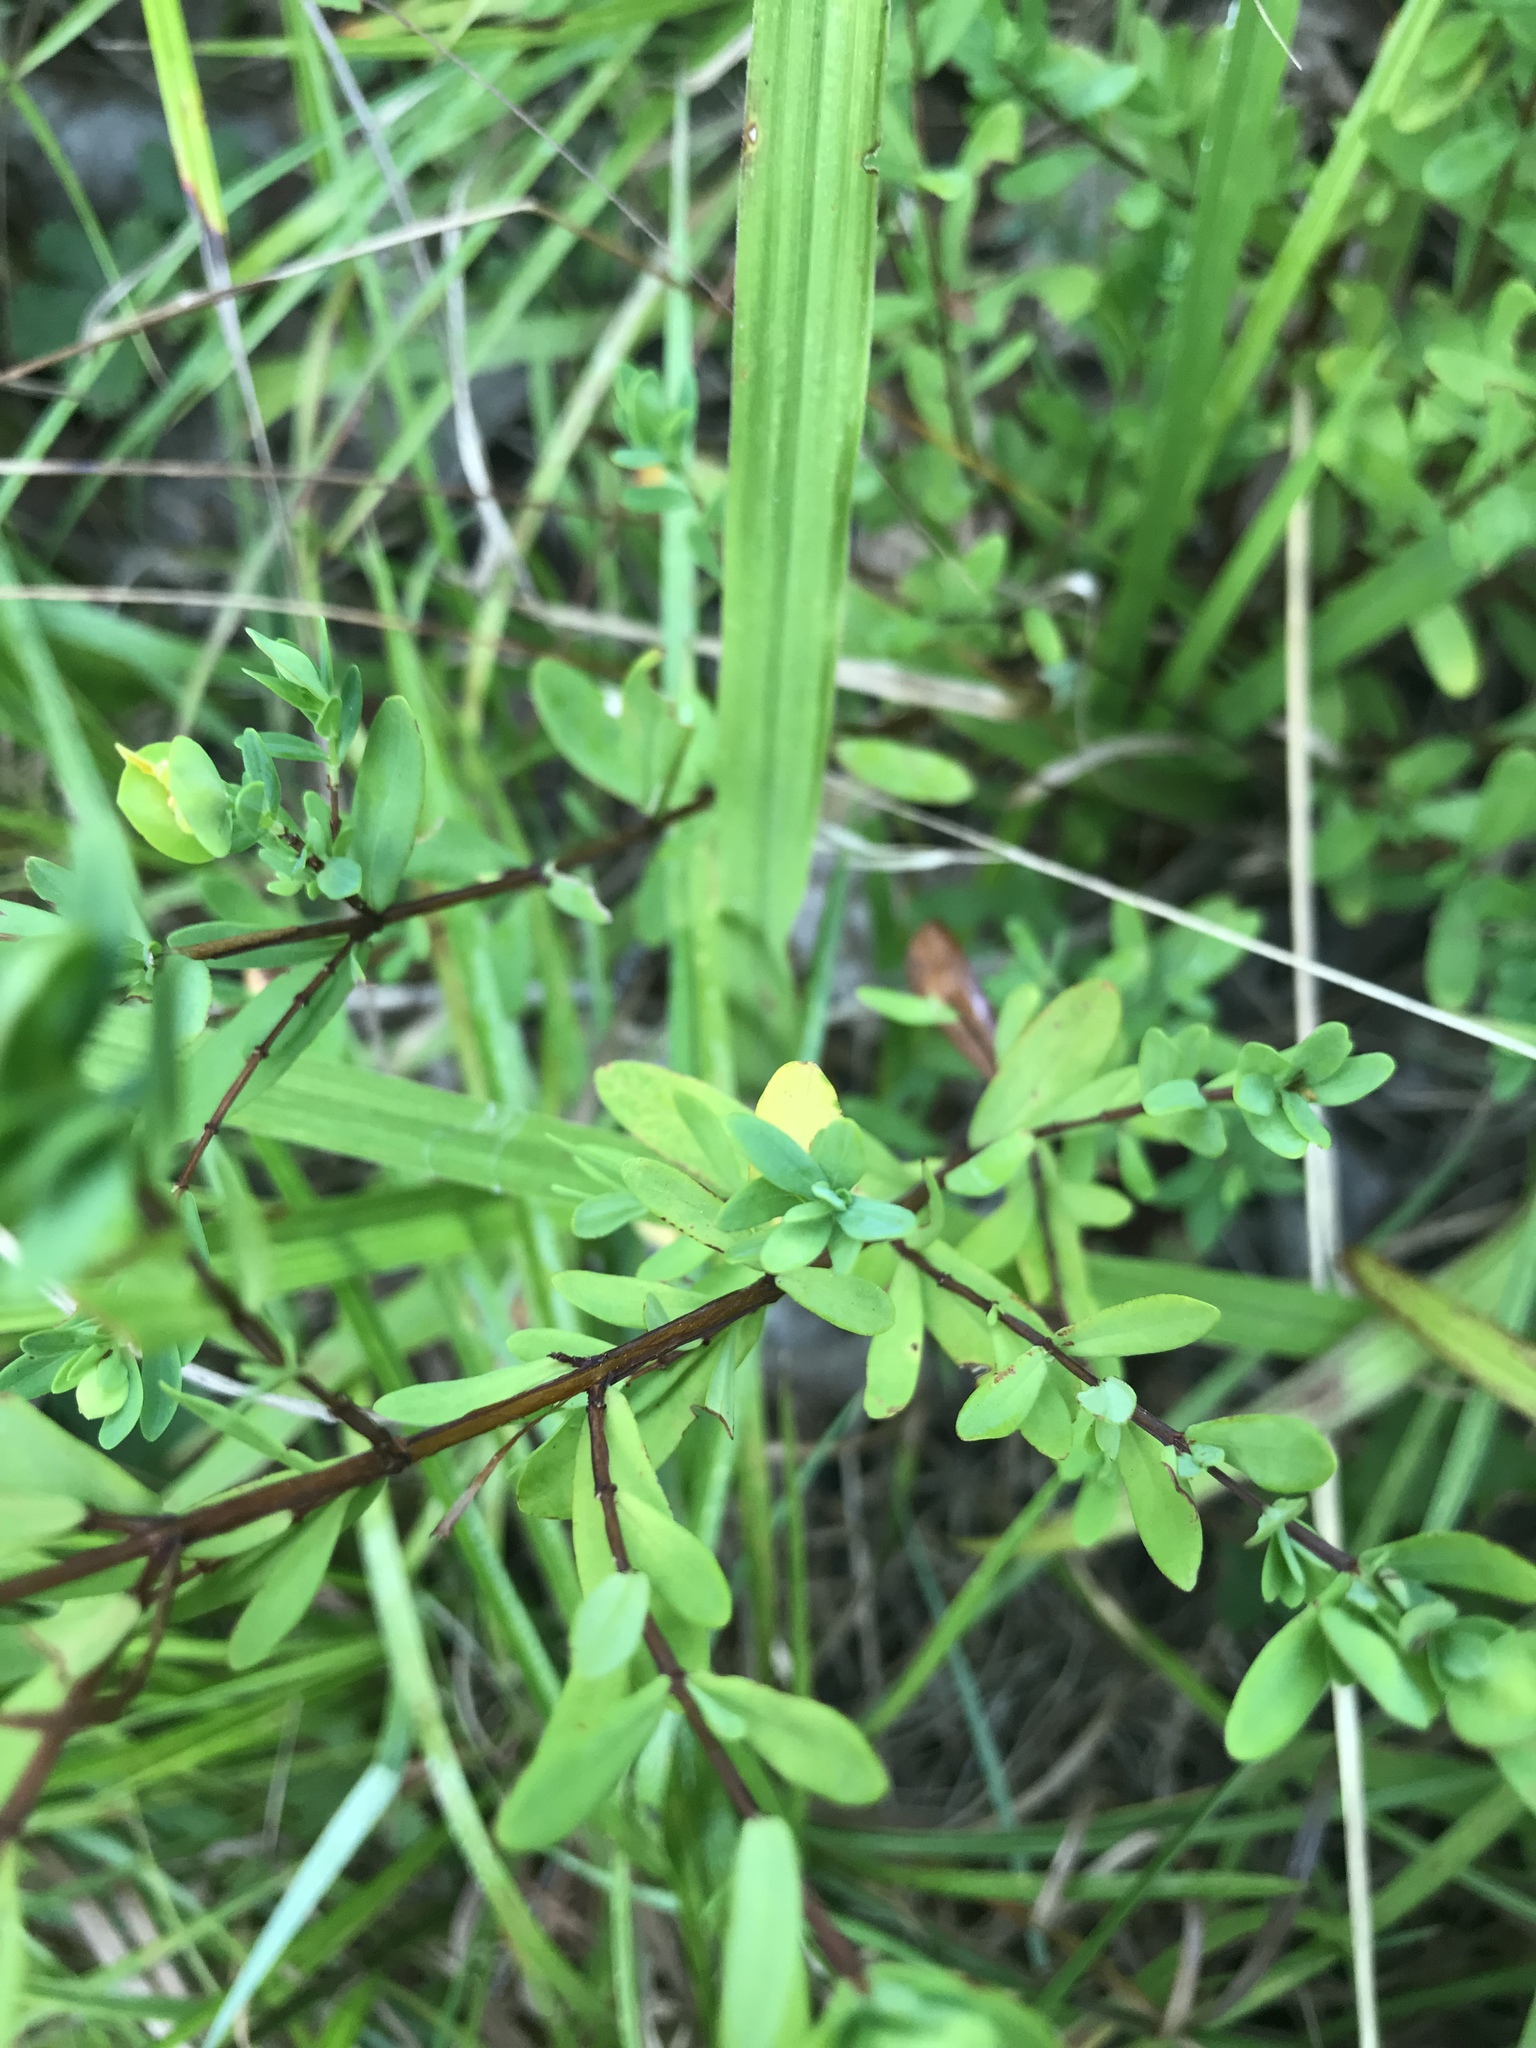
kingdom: Plantae
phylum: Tracheophyta
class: Magnoliopsida
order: Malpighiales
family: Hypericaceae
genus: Hypericum
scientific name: Hypericum hypericoides
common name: St. andrew's cross
